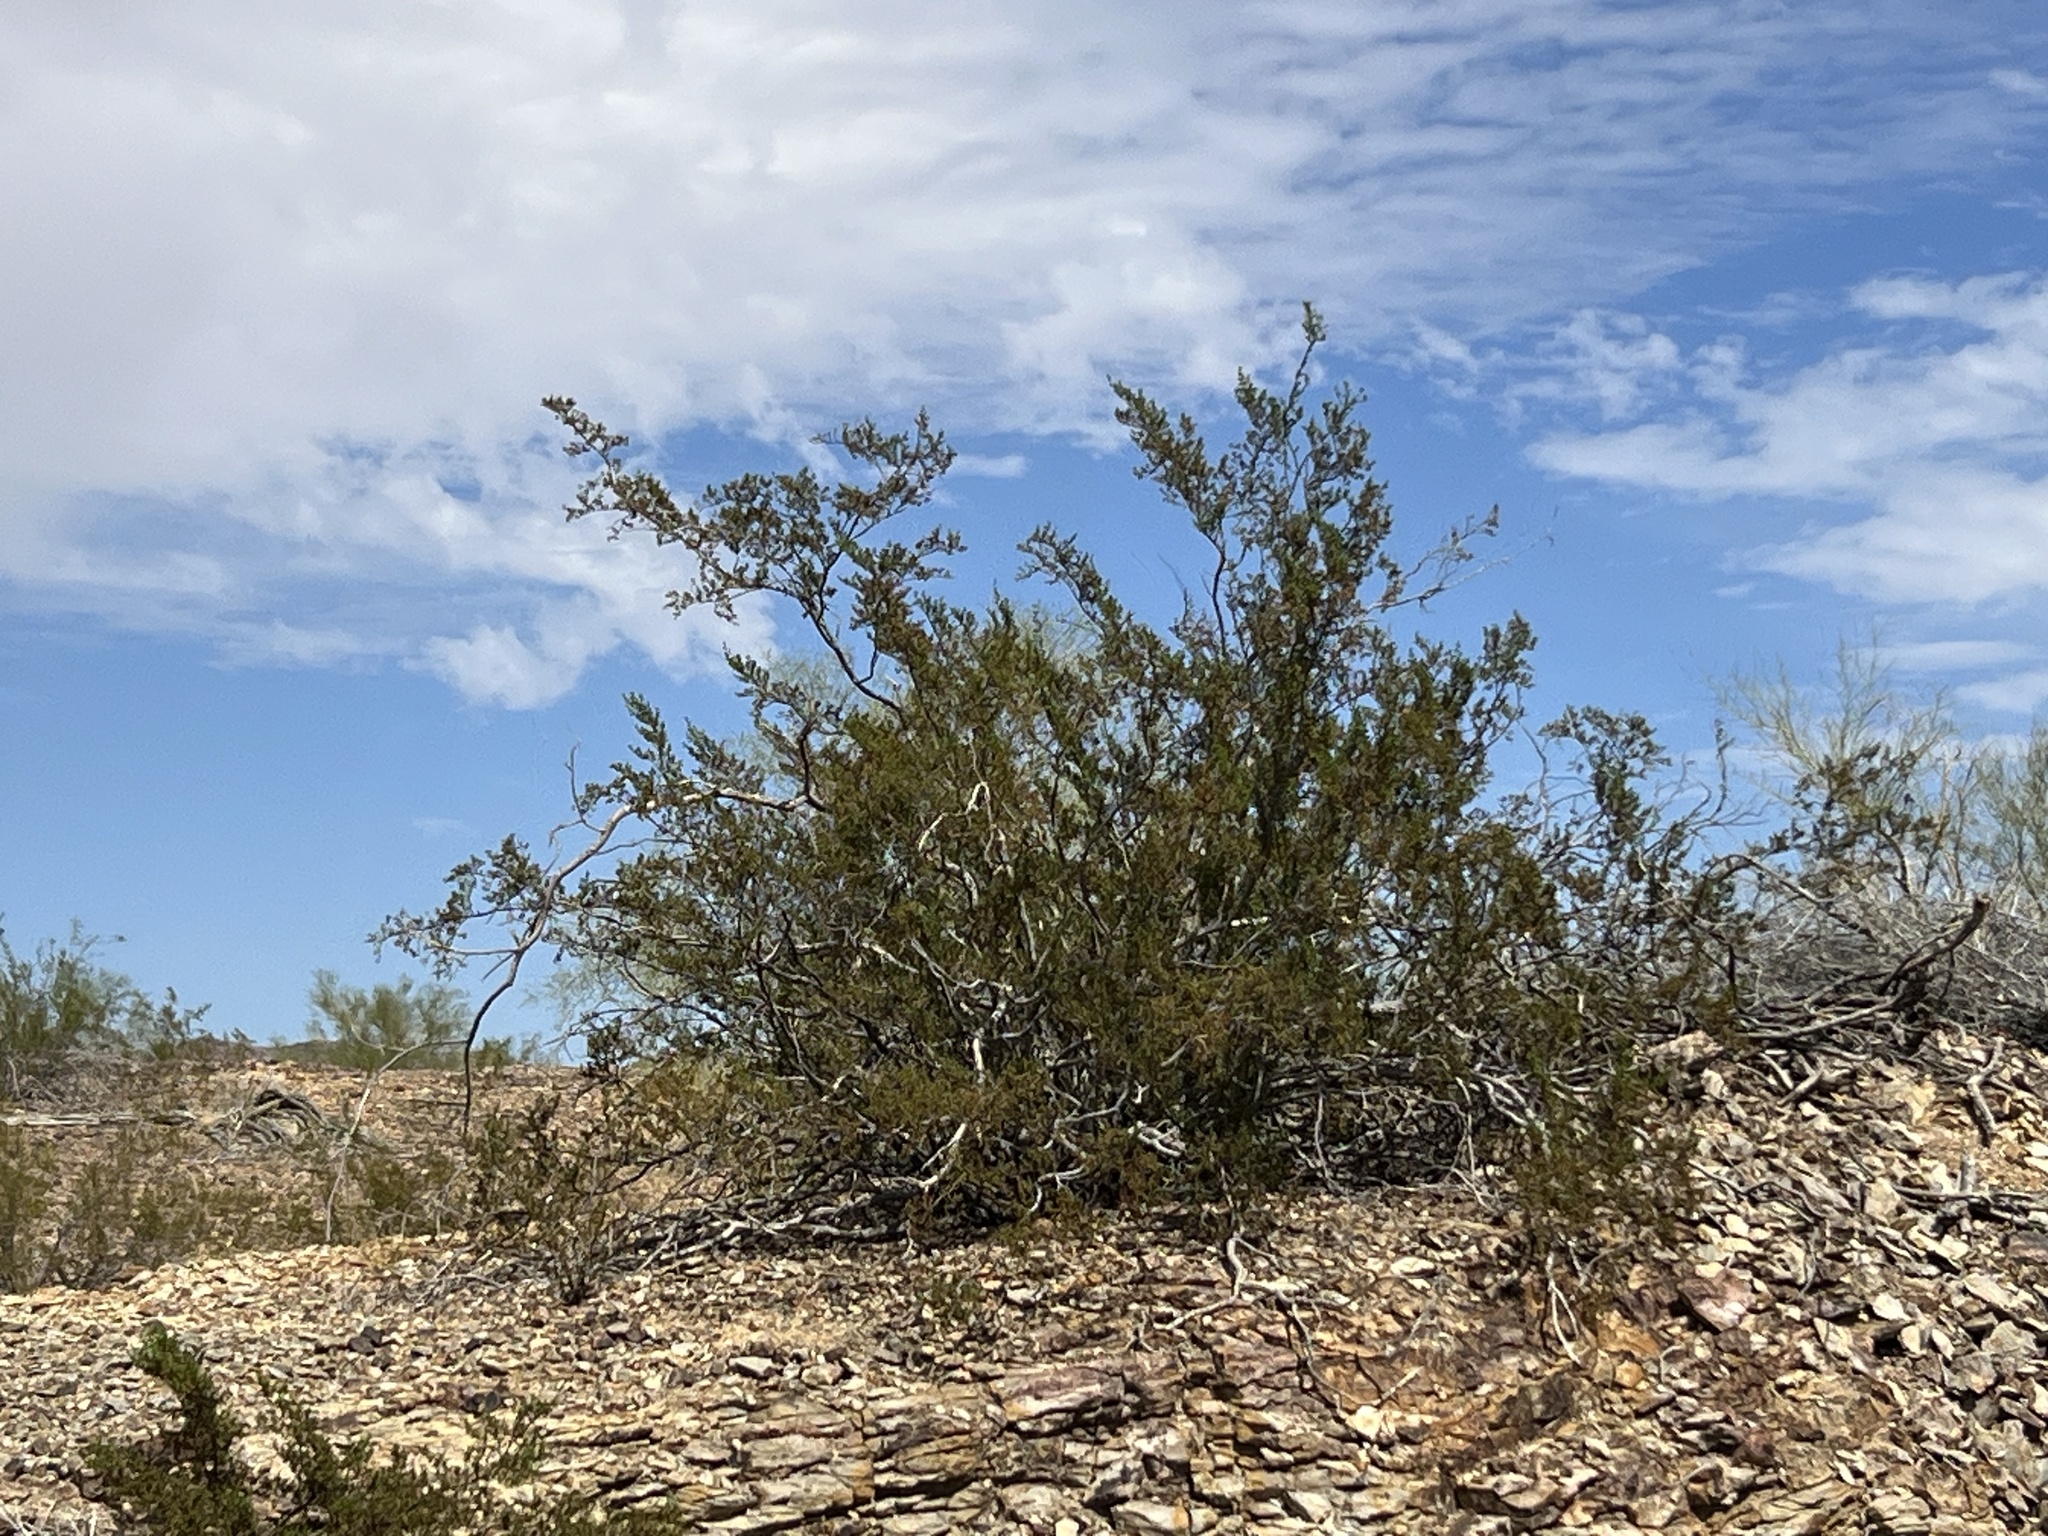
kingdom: Plantae
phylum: Tracheophyta
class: Magnoliopsida
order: Zygophyllales
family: Zygophyllaceae
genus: Larrea
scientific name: Larrea tridentata
